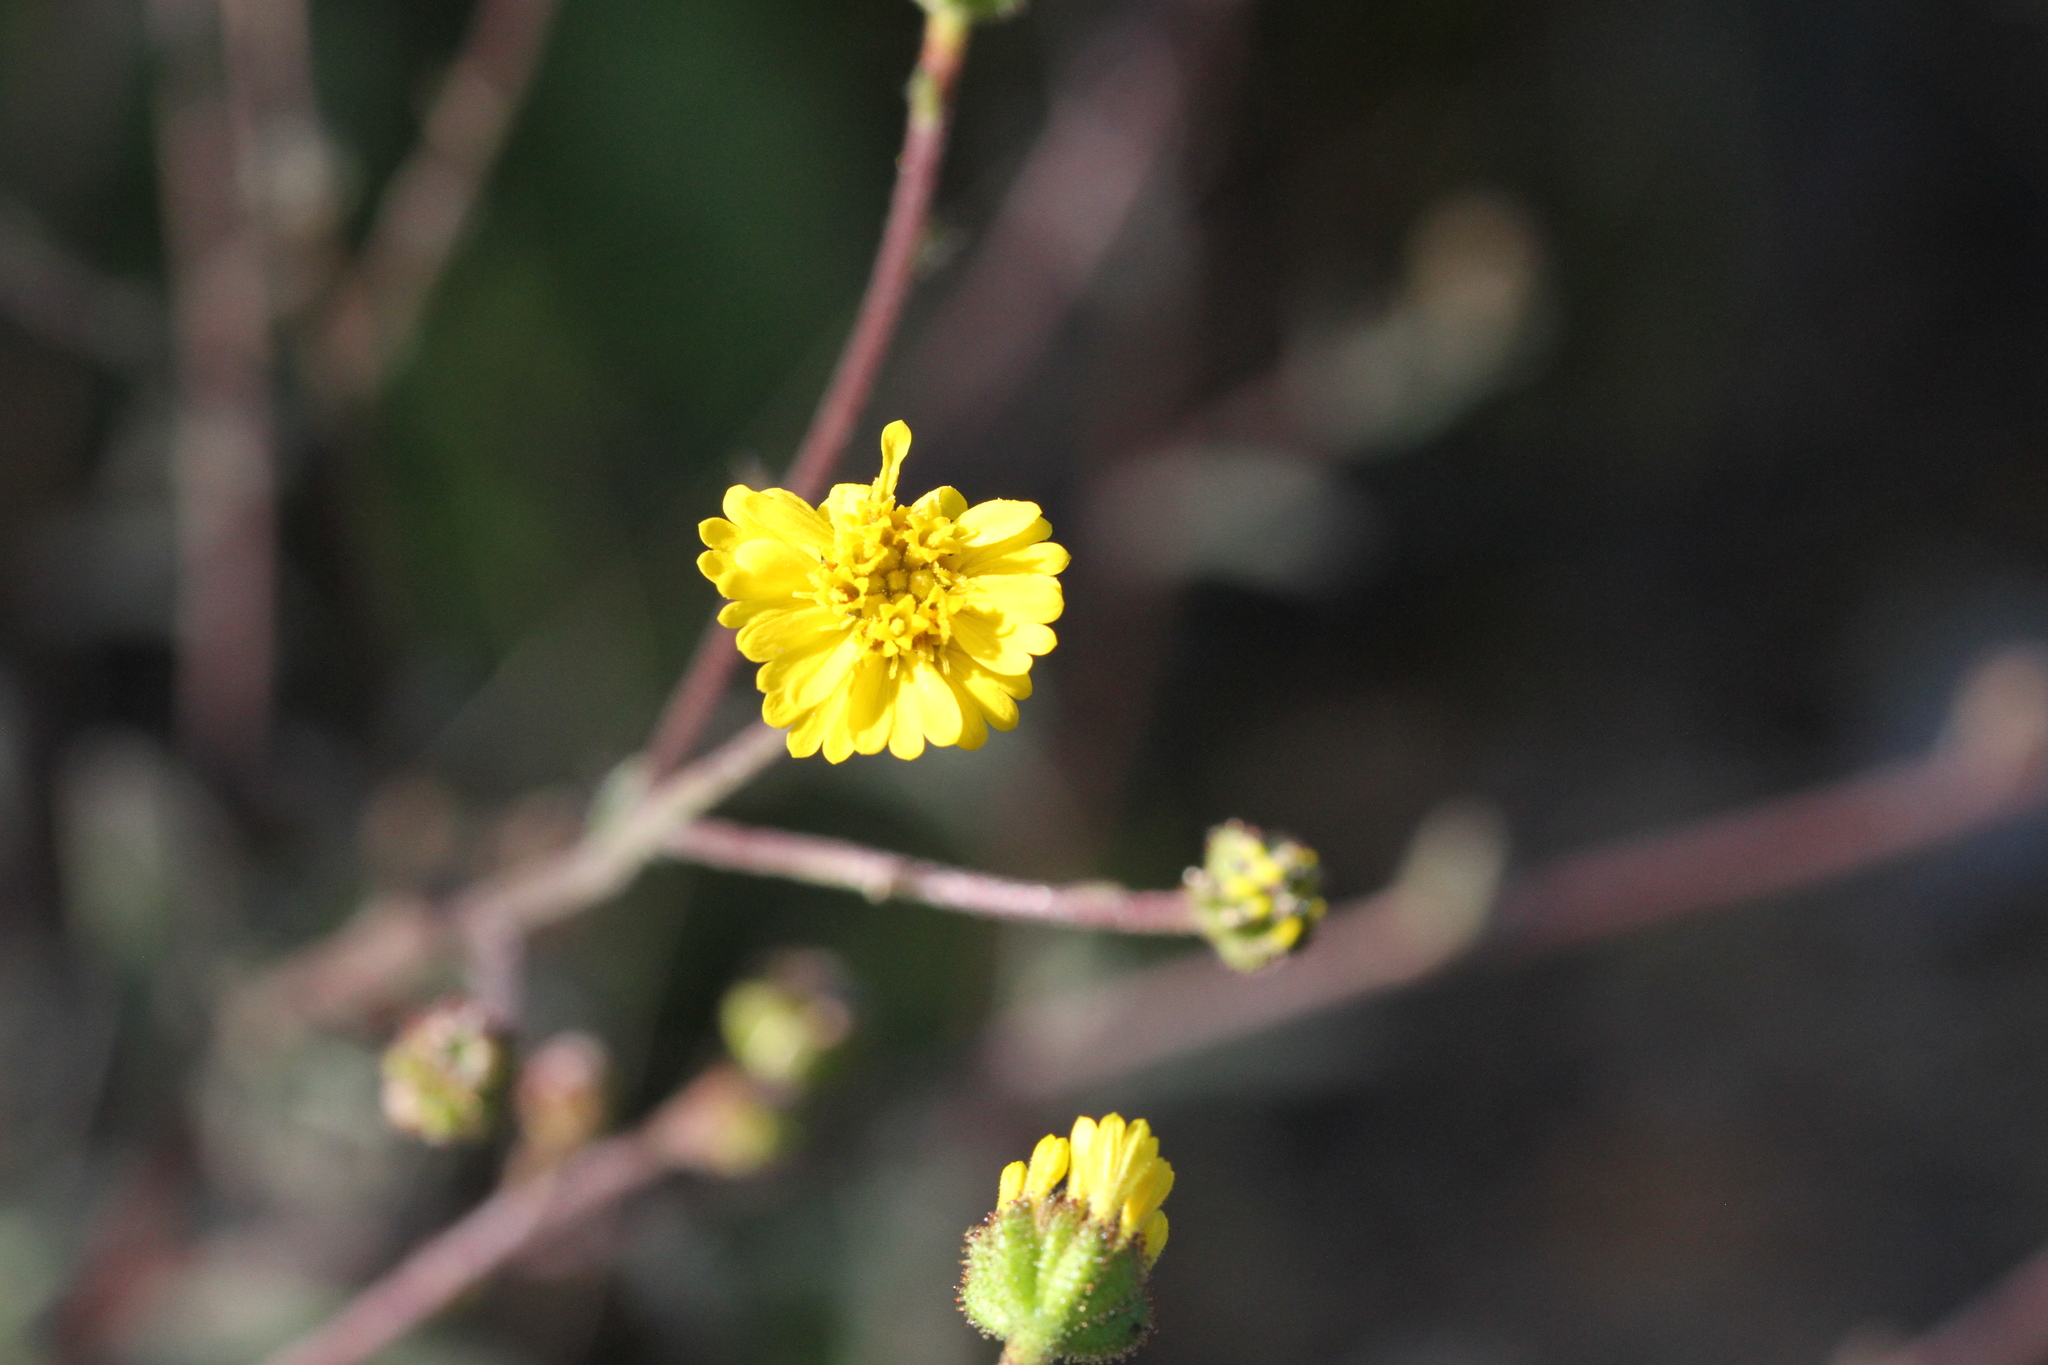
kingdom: Plantae
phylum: Tracheophyta
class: Magnoliopsida
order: Asterales
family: Asteraceae
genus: Anisocarpus
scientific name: Anisocarpus madioides
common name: Woodland madia
